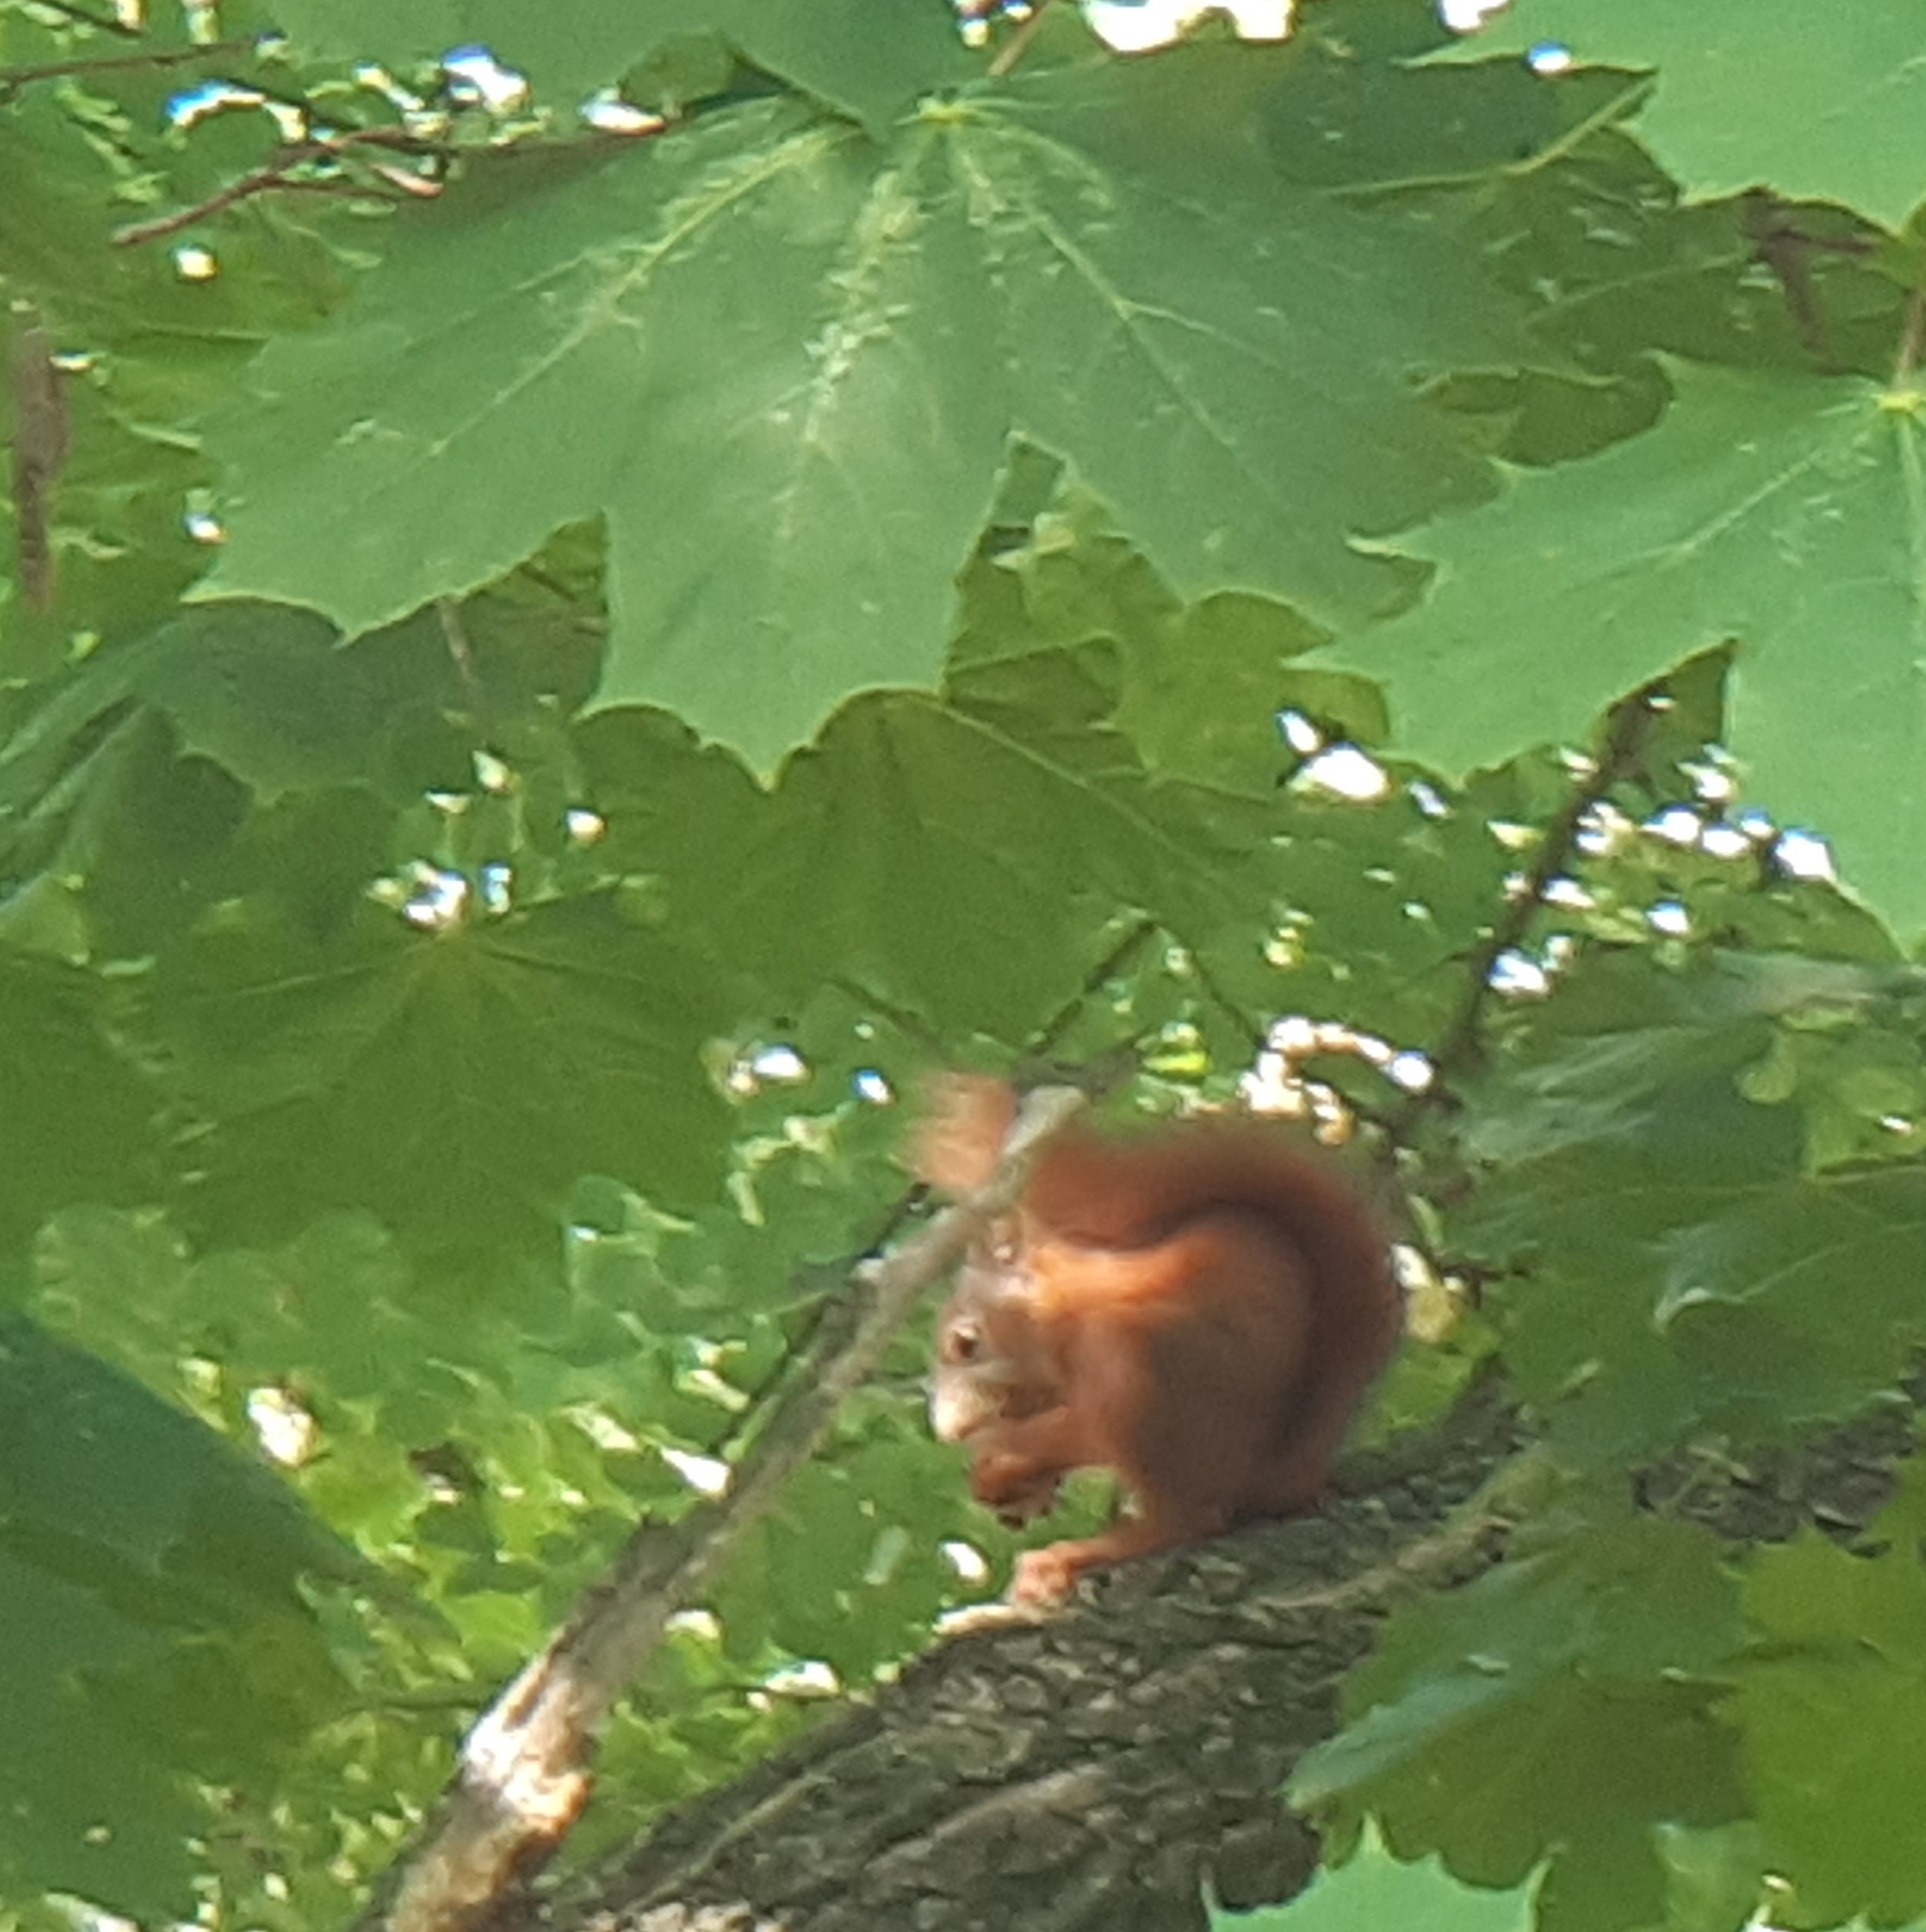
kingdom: Animalia
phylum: Chordata
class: Mammalia
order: Rodentia
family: Sciuridae
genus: Sciurus
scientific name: Sciurus vulgaris
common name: Eurasian red squirrel
